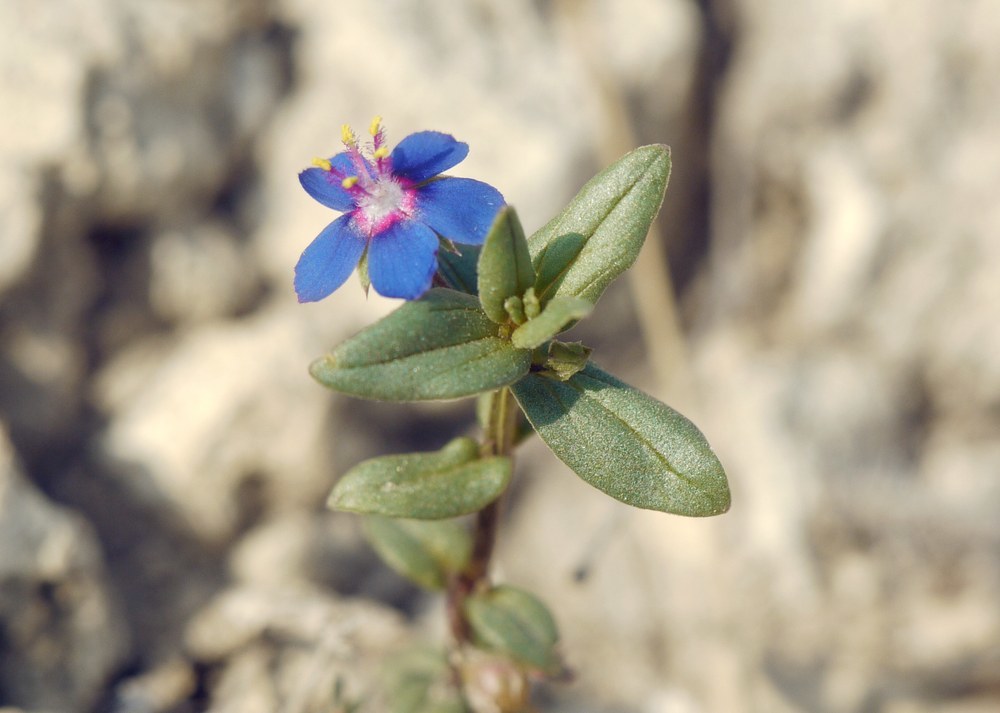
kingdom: Plantae
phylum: Tracheophyta
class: Magnoliopsida
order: Ericales
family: Primulaceae
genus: Lysimachia
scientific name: Lysimachia foemina
